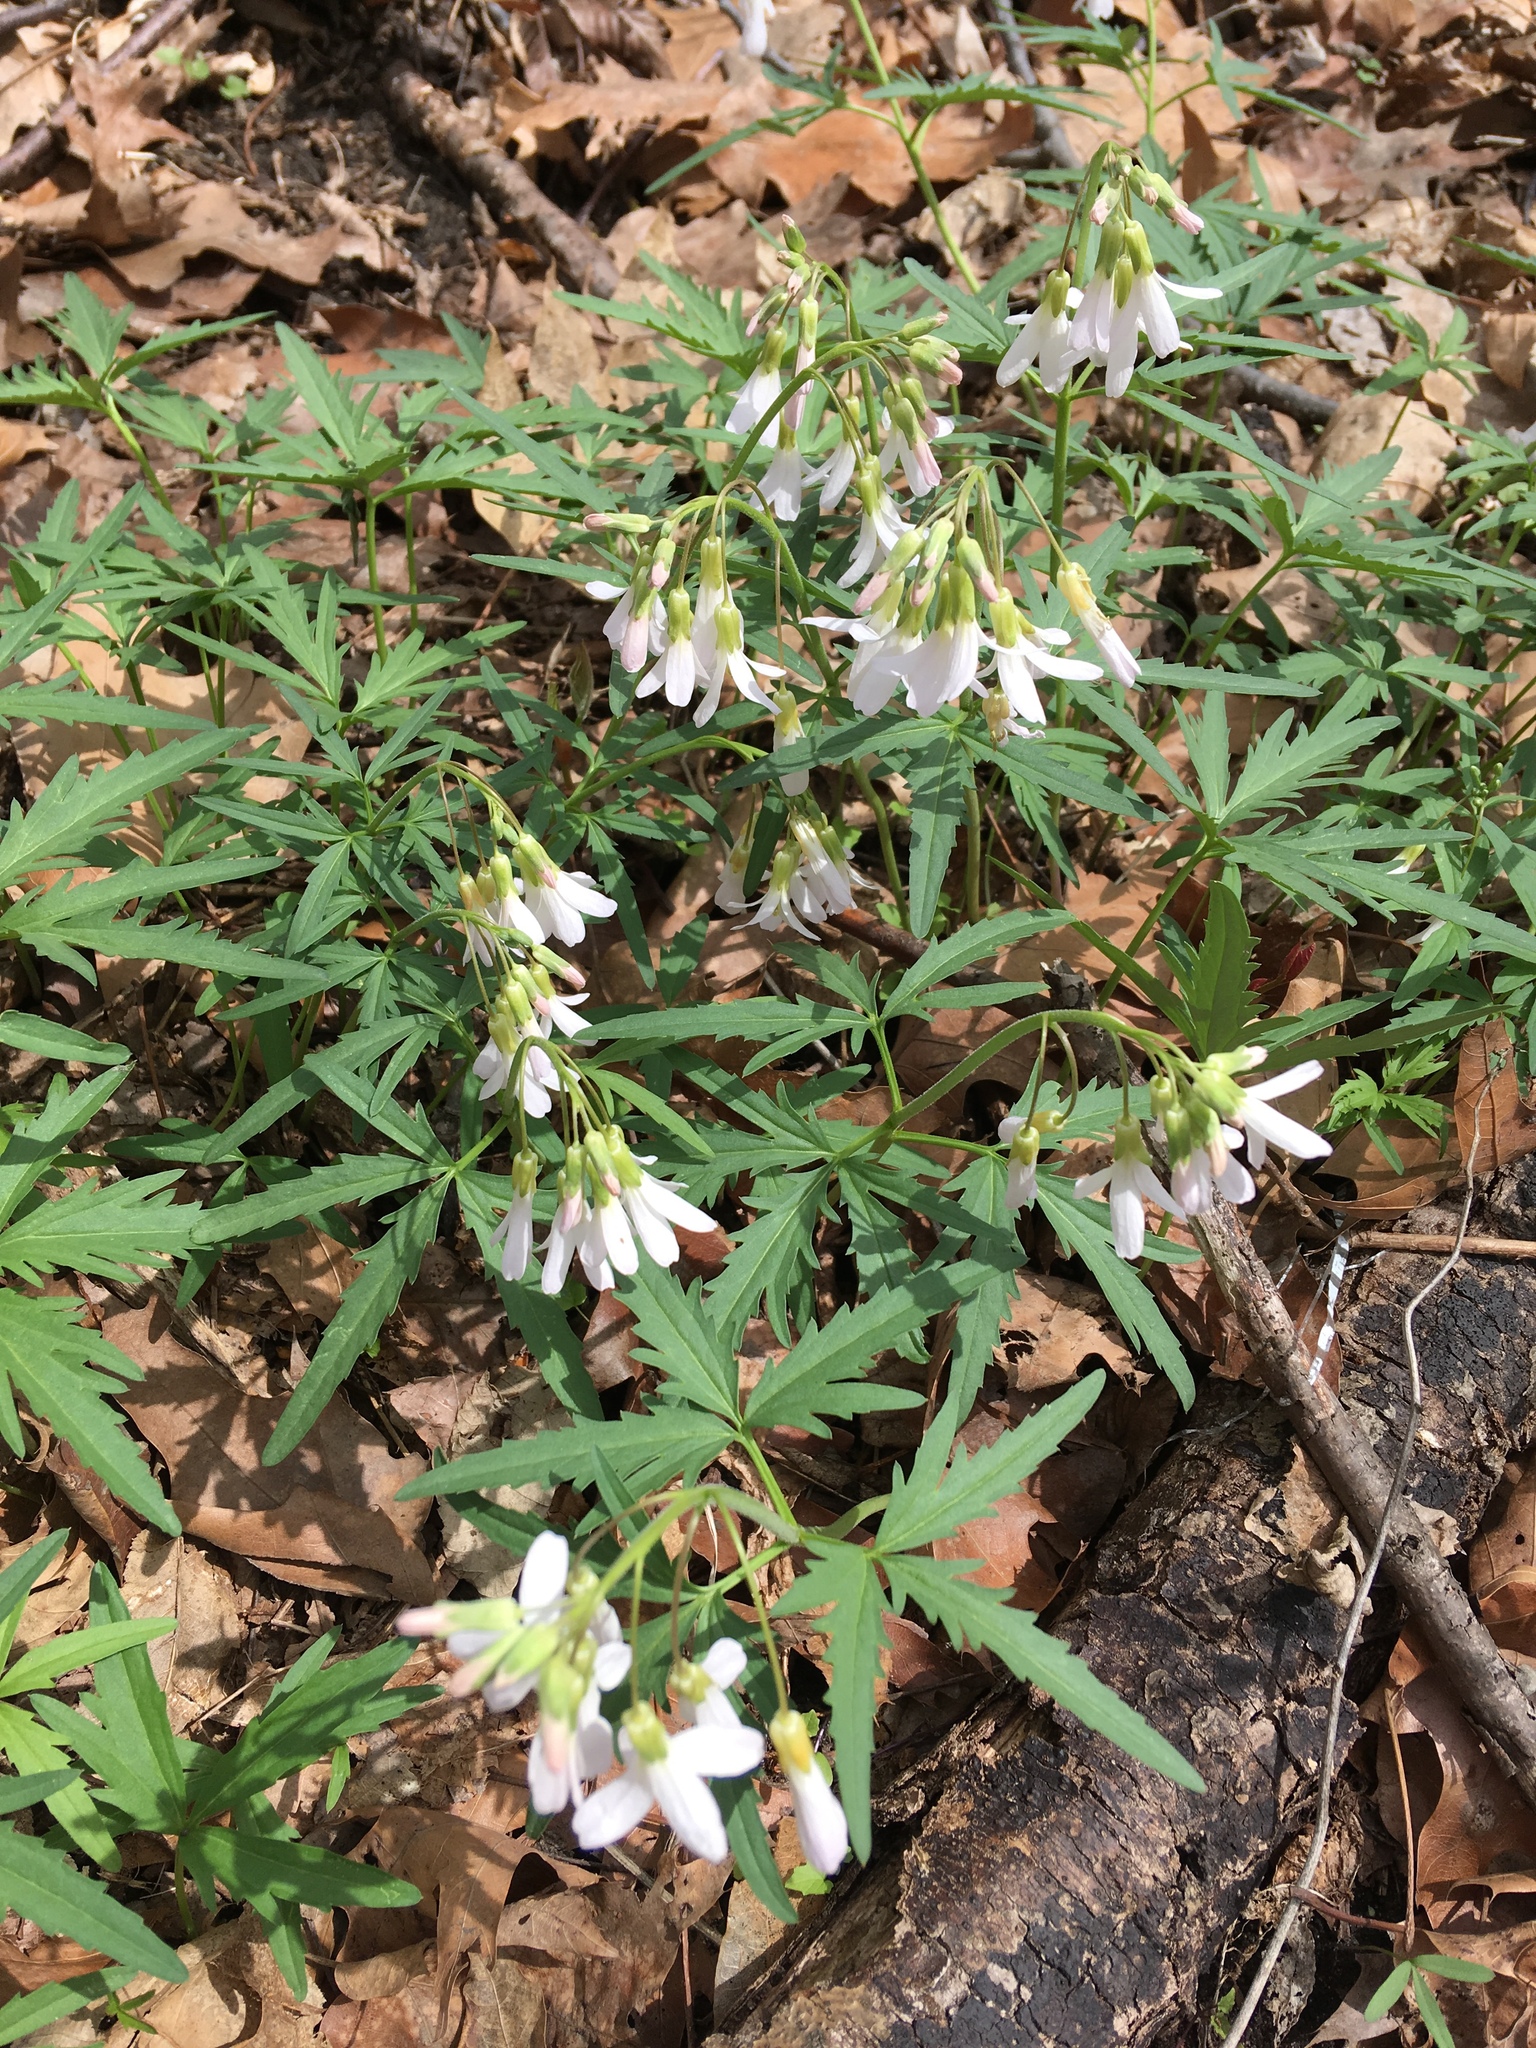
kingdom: Plantae
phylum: Tracheophyta
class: Magnoliopsida
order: Brassicales
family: Brassicaceae
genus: Cardamine
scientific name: Cardamine concatenata
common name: Cut-leaf toothcup
